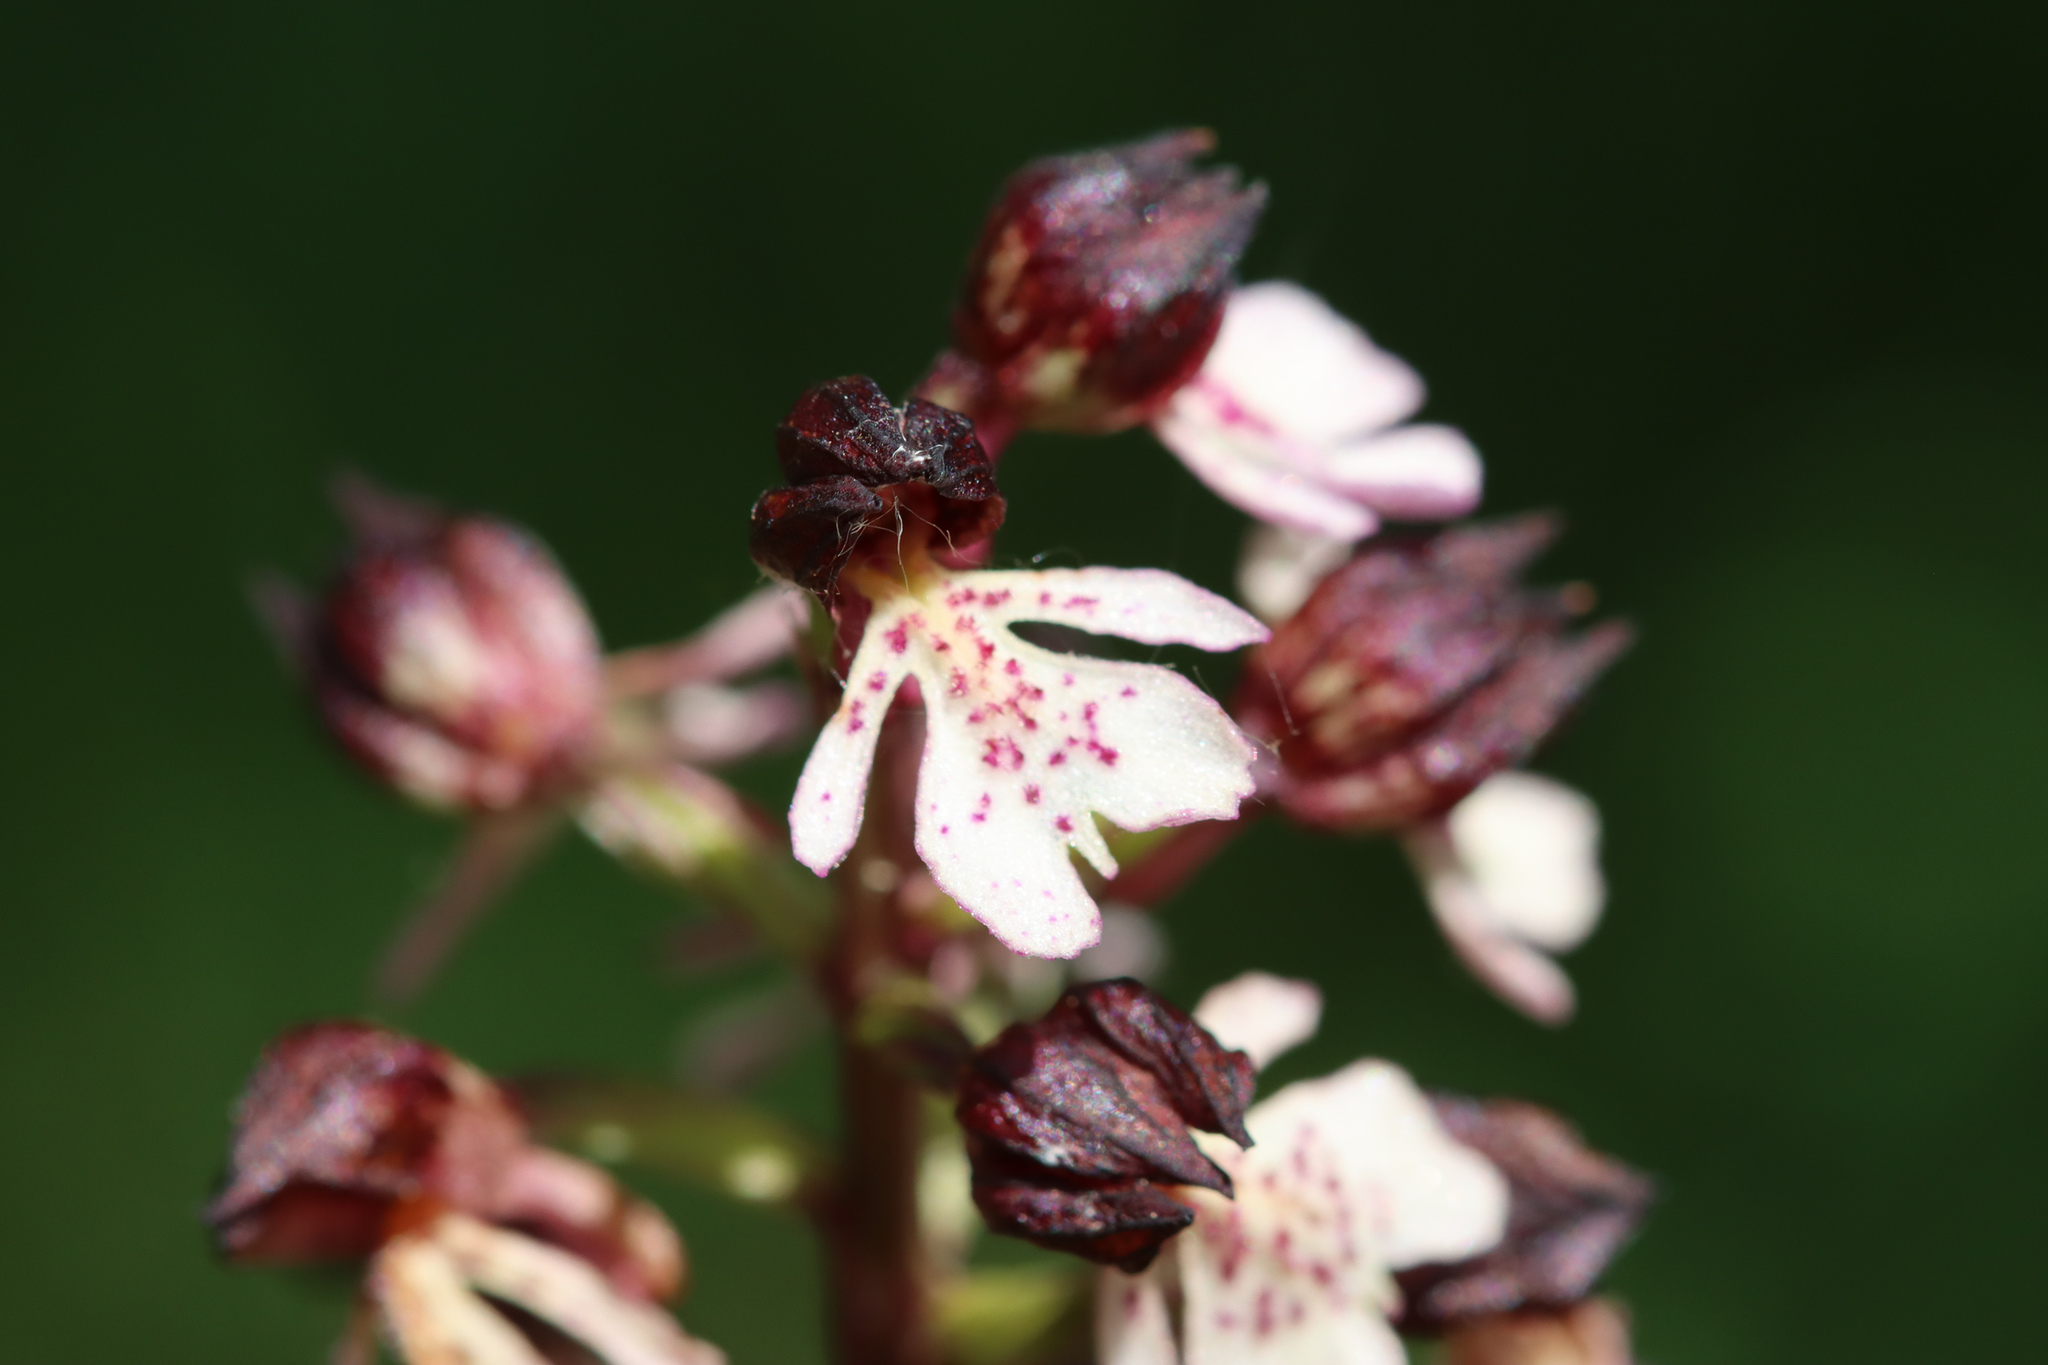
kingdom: Plantae
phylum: Tracheophyta
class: Liliopsida
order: Asparagales
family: Orchidaceae
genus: Orchis
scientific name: Orchis purpurea
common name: Lady orchid
